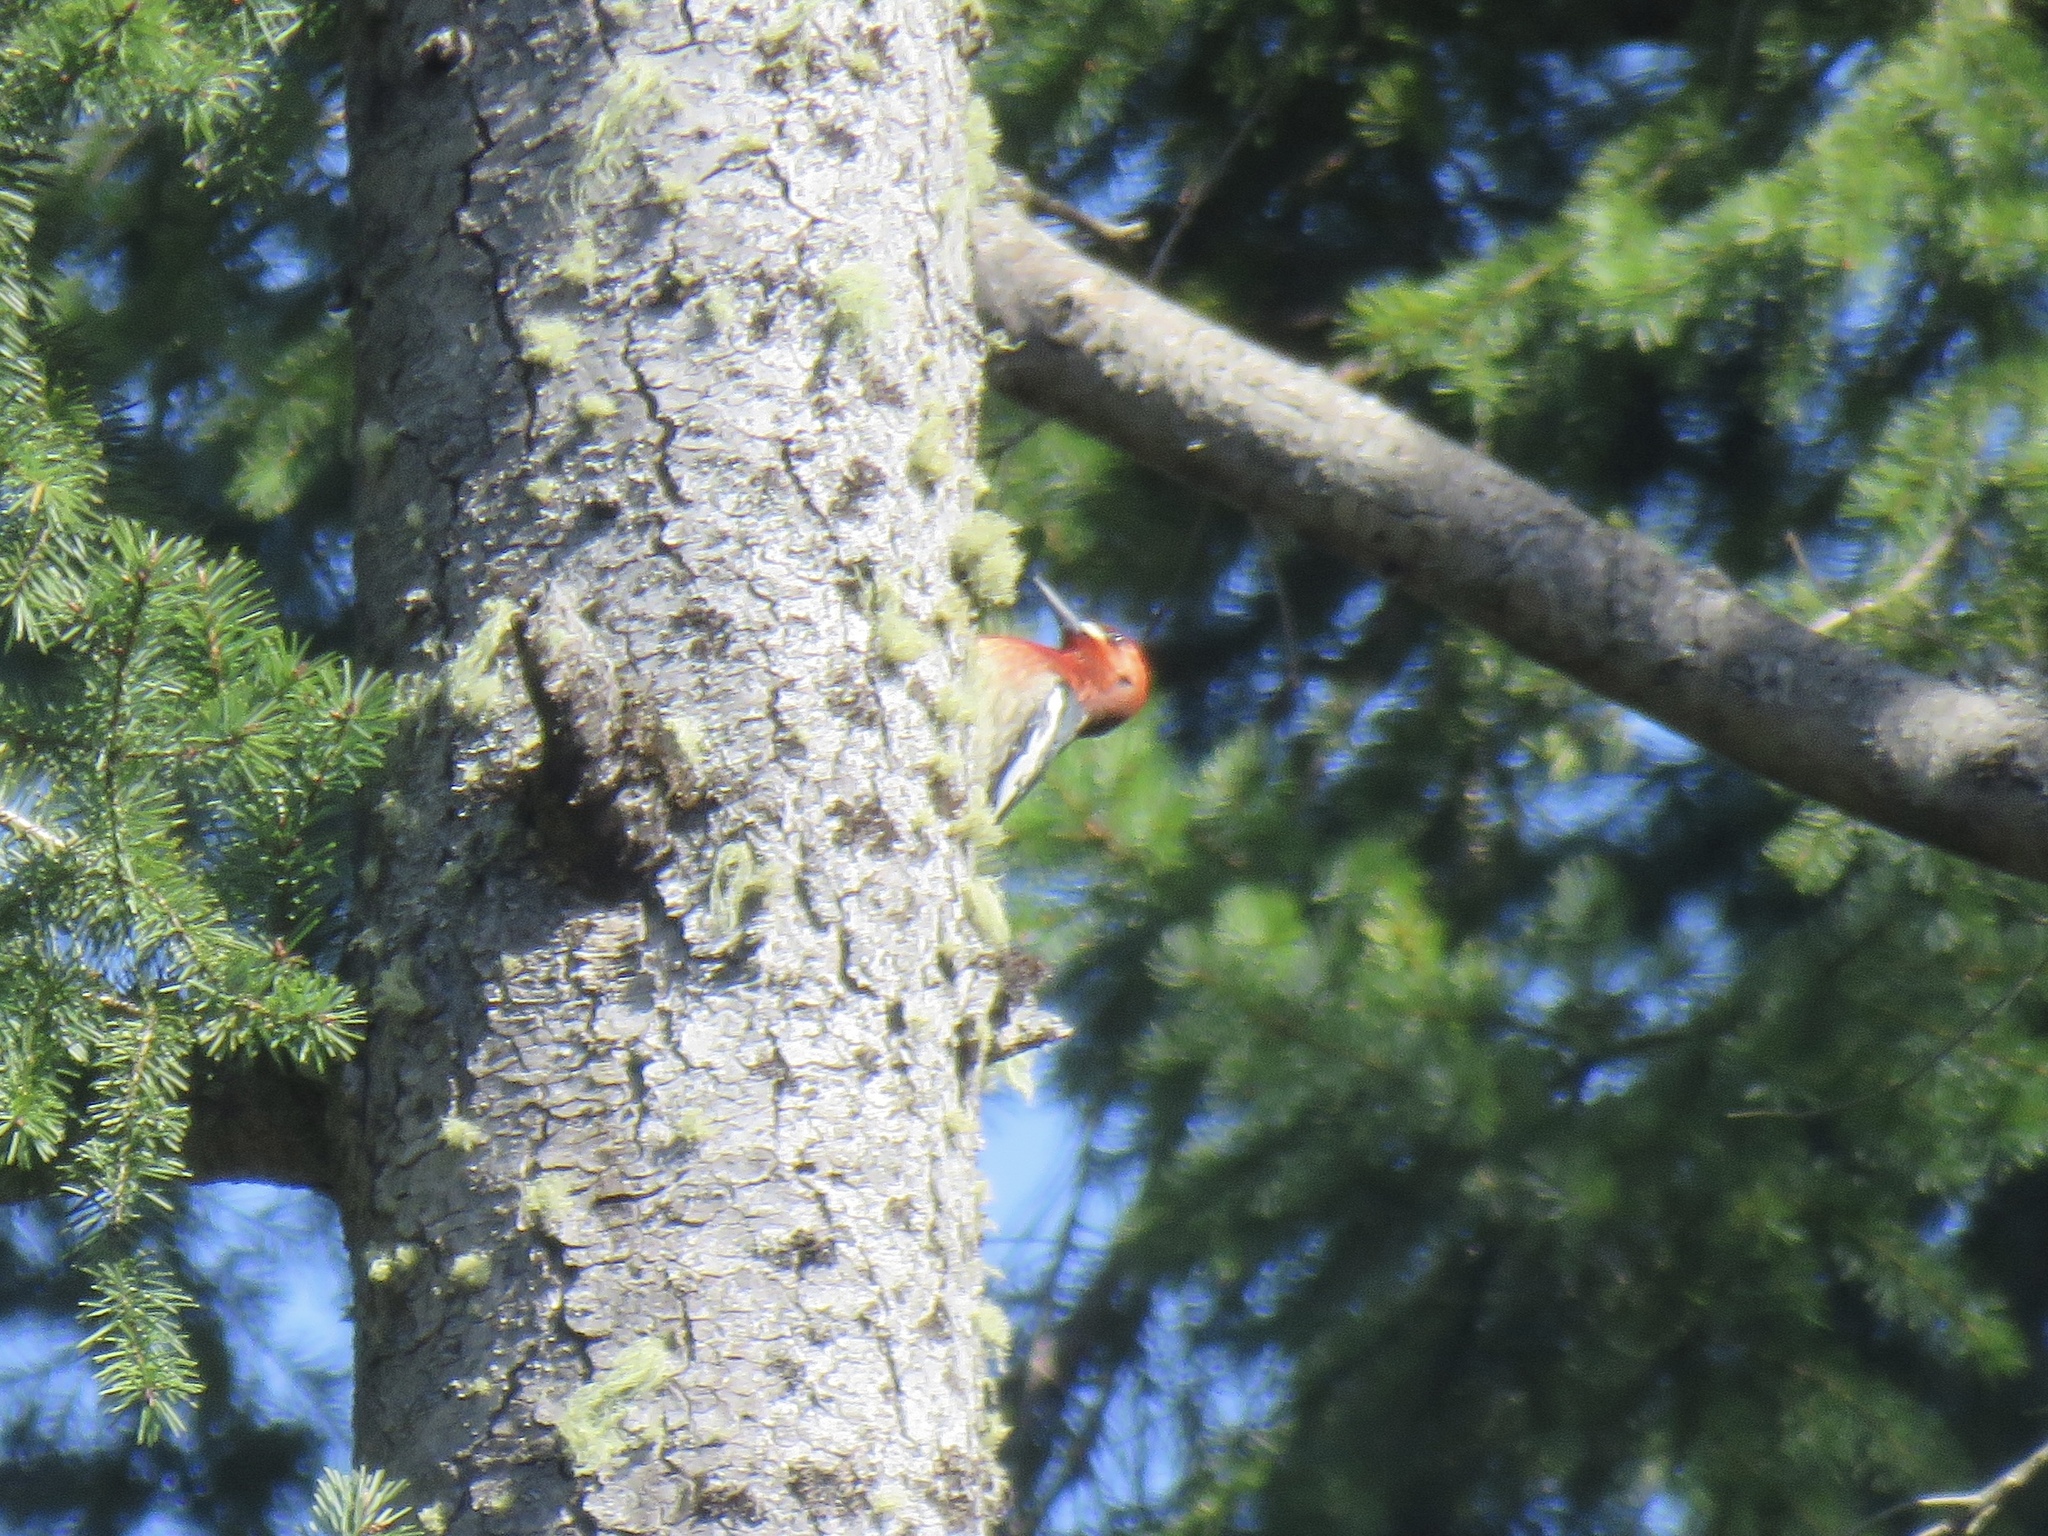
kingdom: Animalia
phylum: Chordata
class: Aves
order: Piciformes
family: Picidae
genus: Sphyrapicus
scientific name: Sphyrapicus ruber
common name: Red-breasted sapsucker
